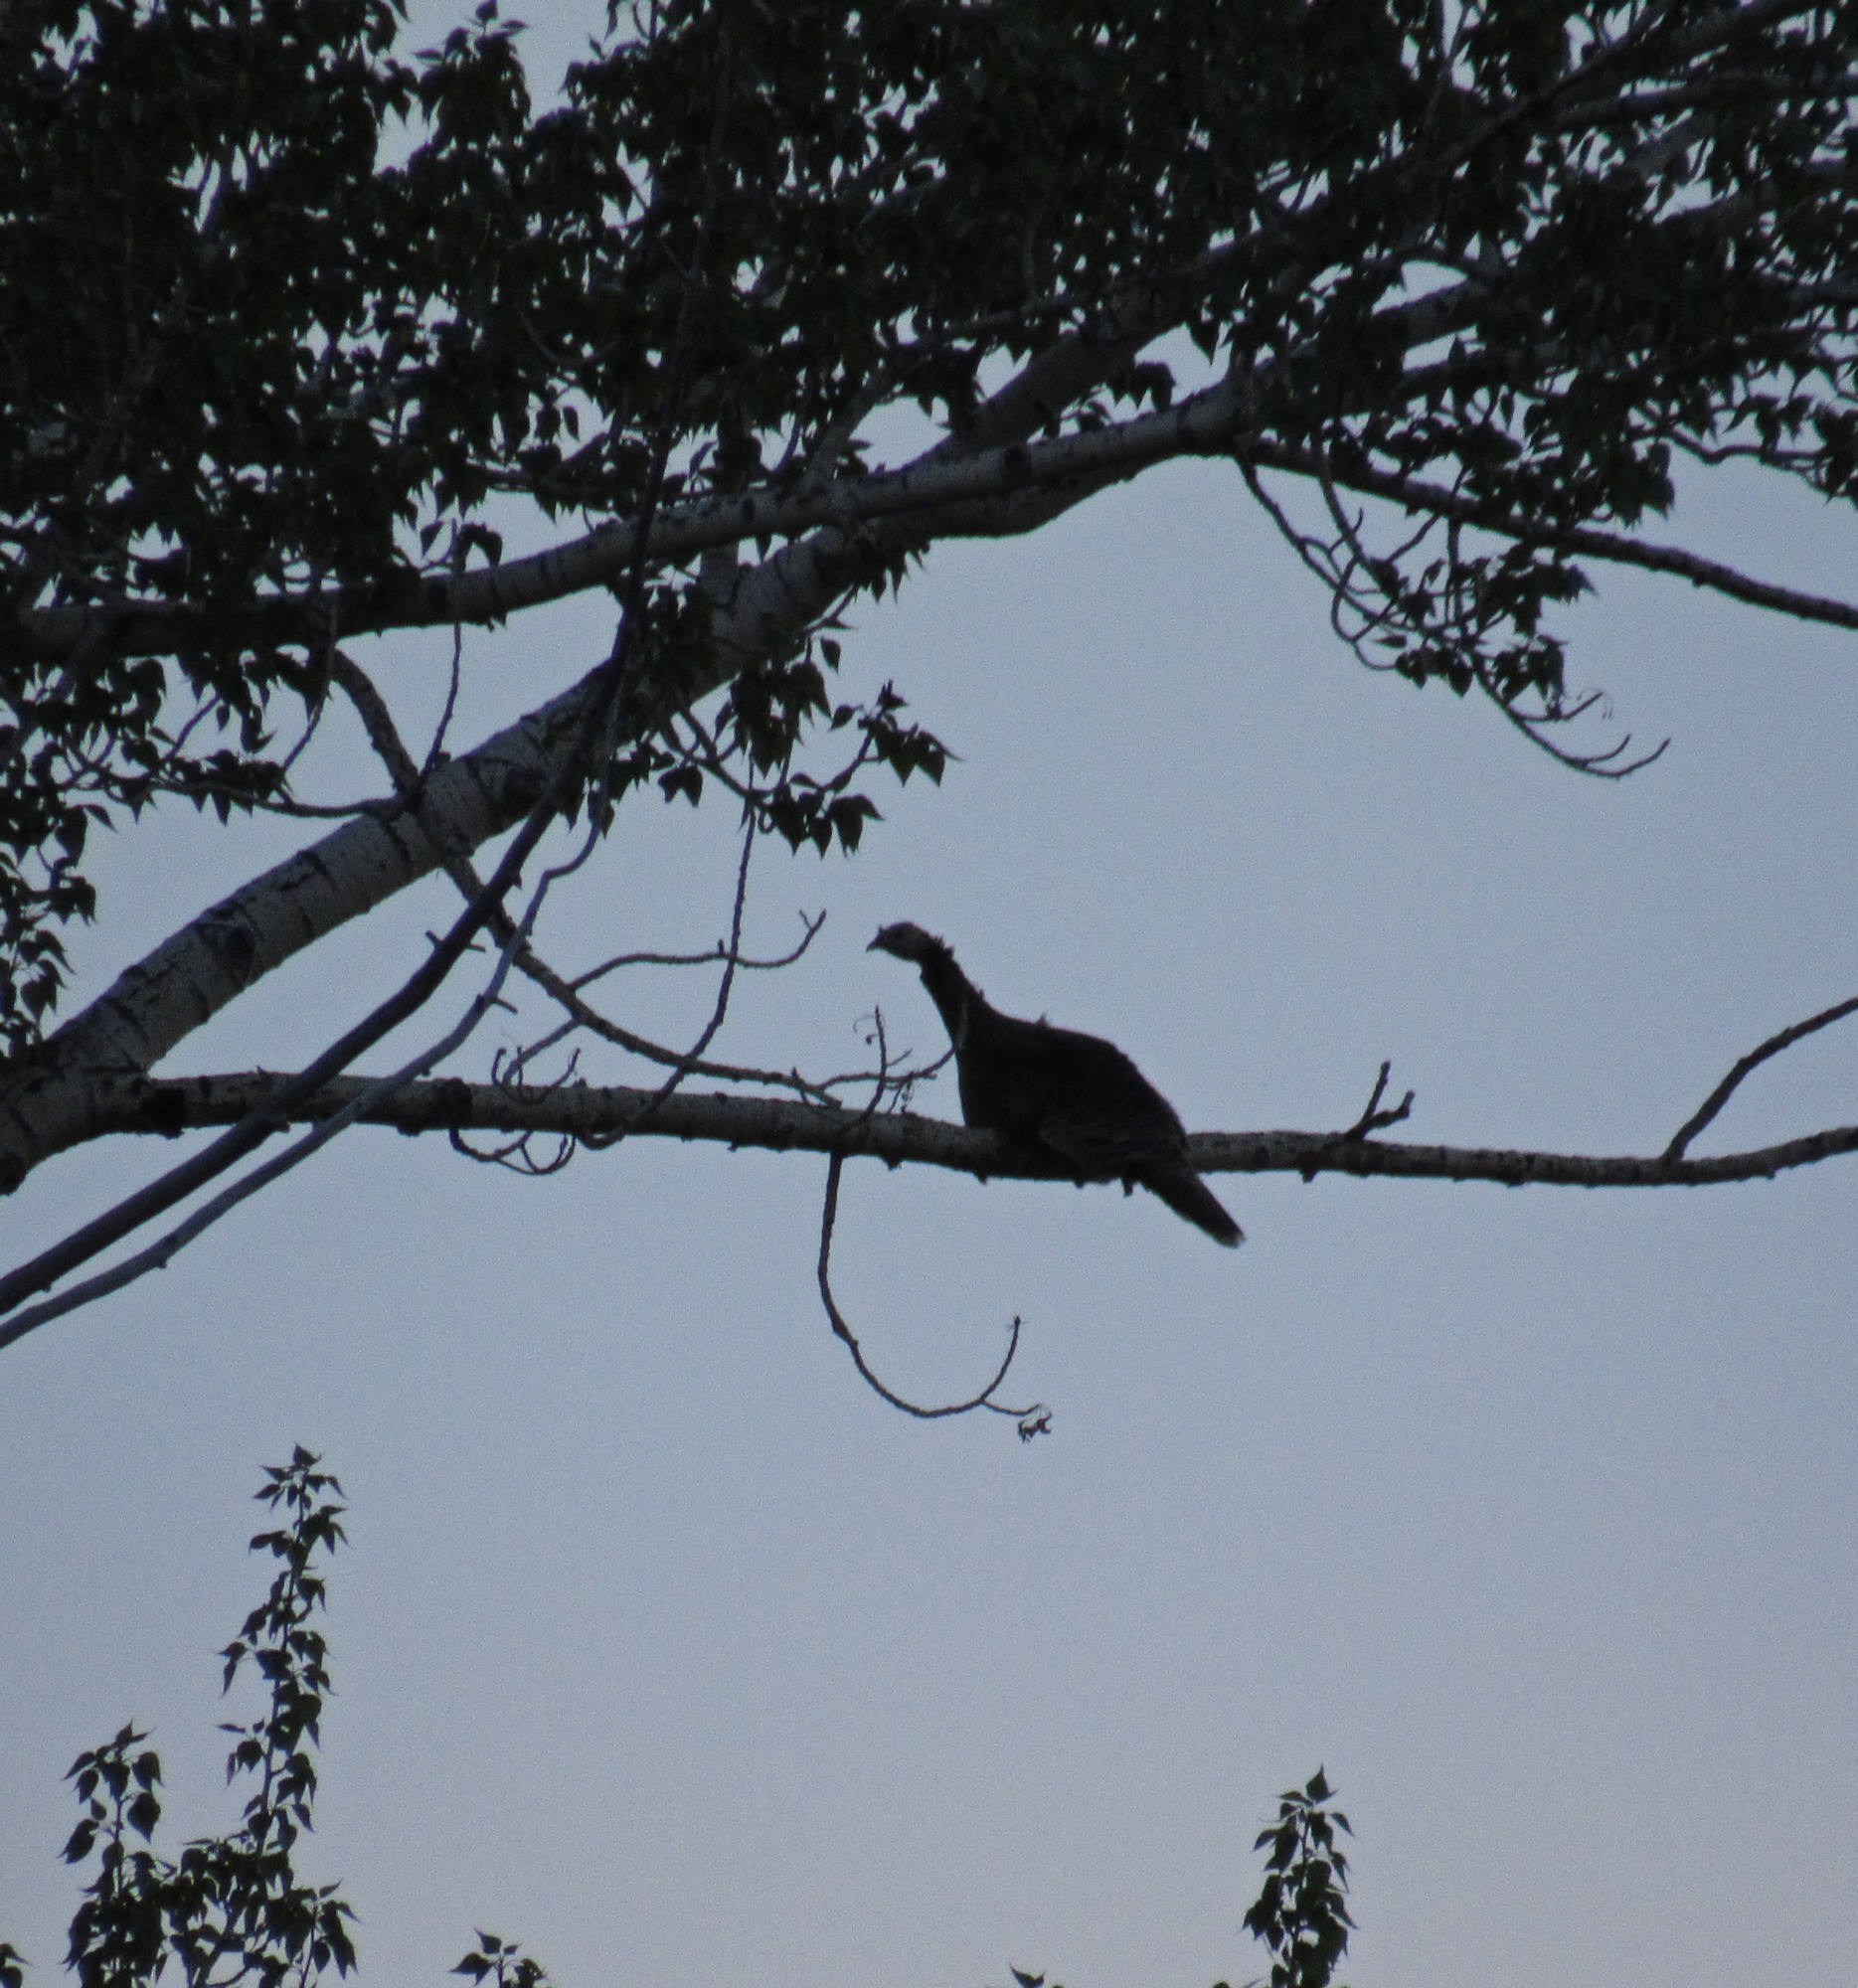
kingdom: Animalia
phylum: Chordata
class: Aves
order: Galliformes
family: Phasianidae
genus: Meleagris
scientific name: Meleagris gallopavo
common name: Wild turkey
